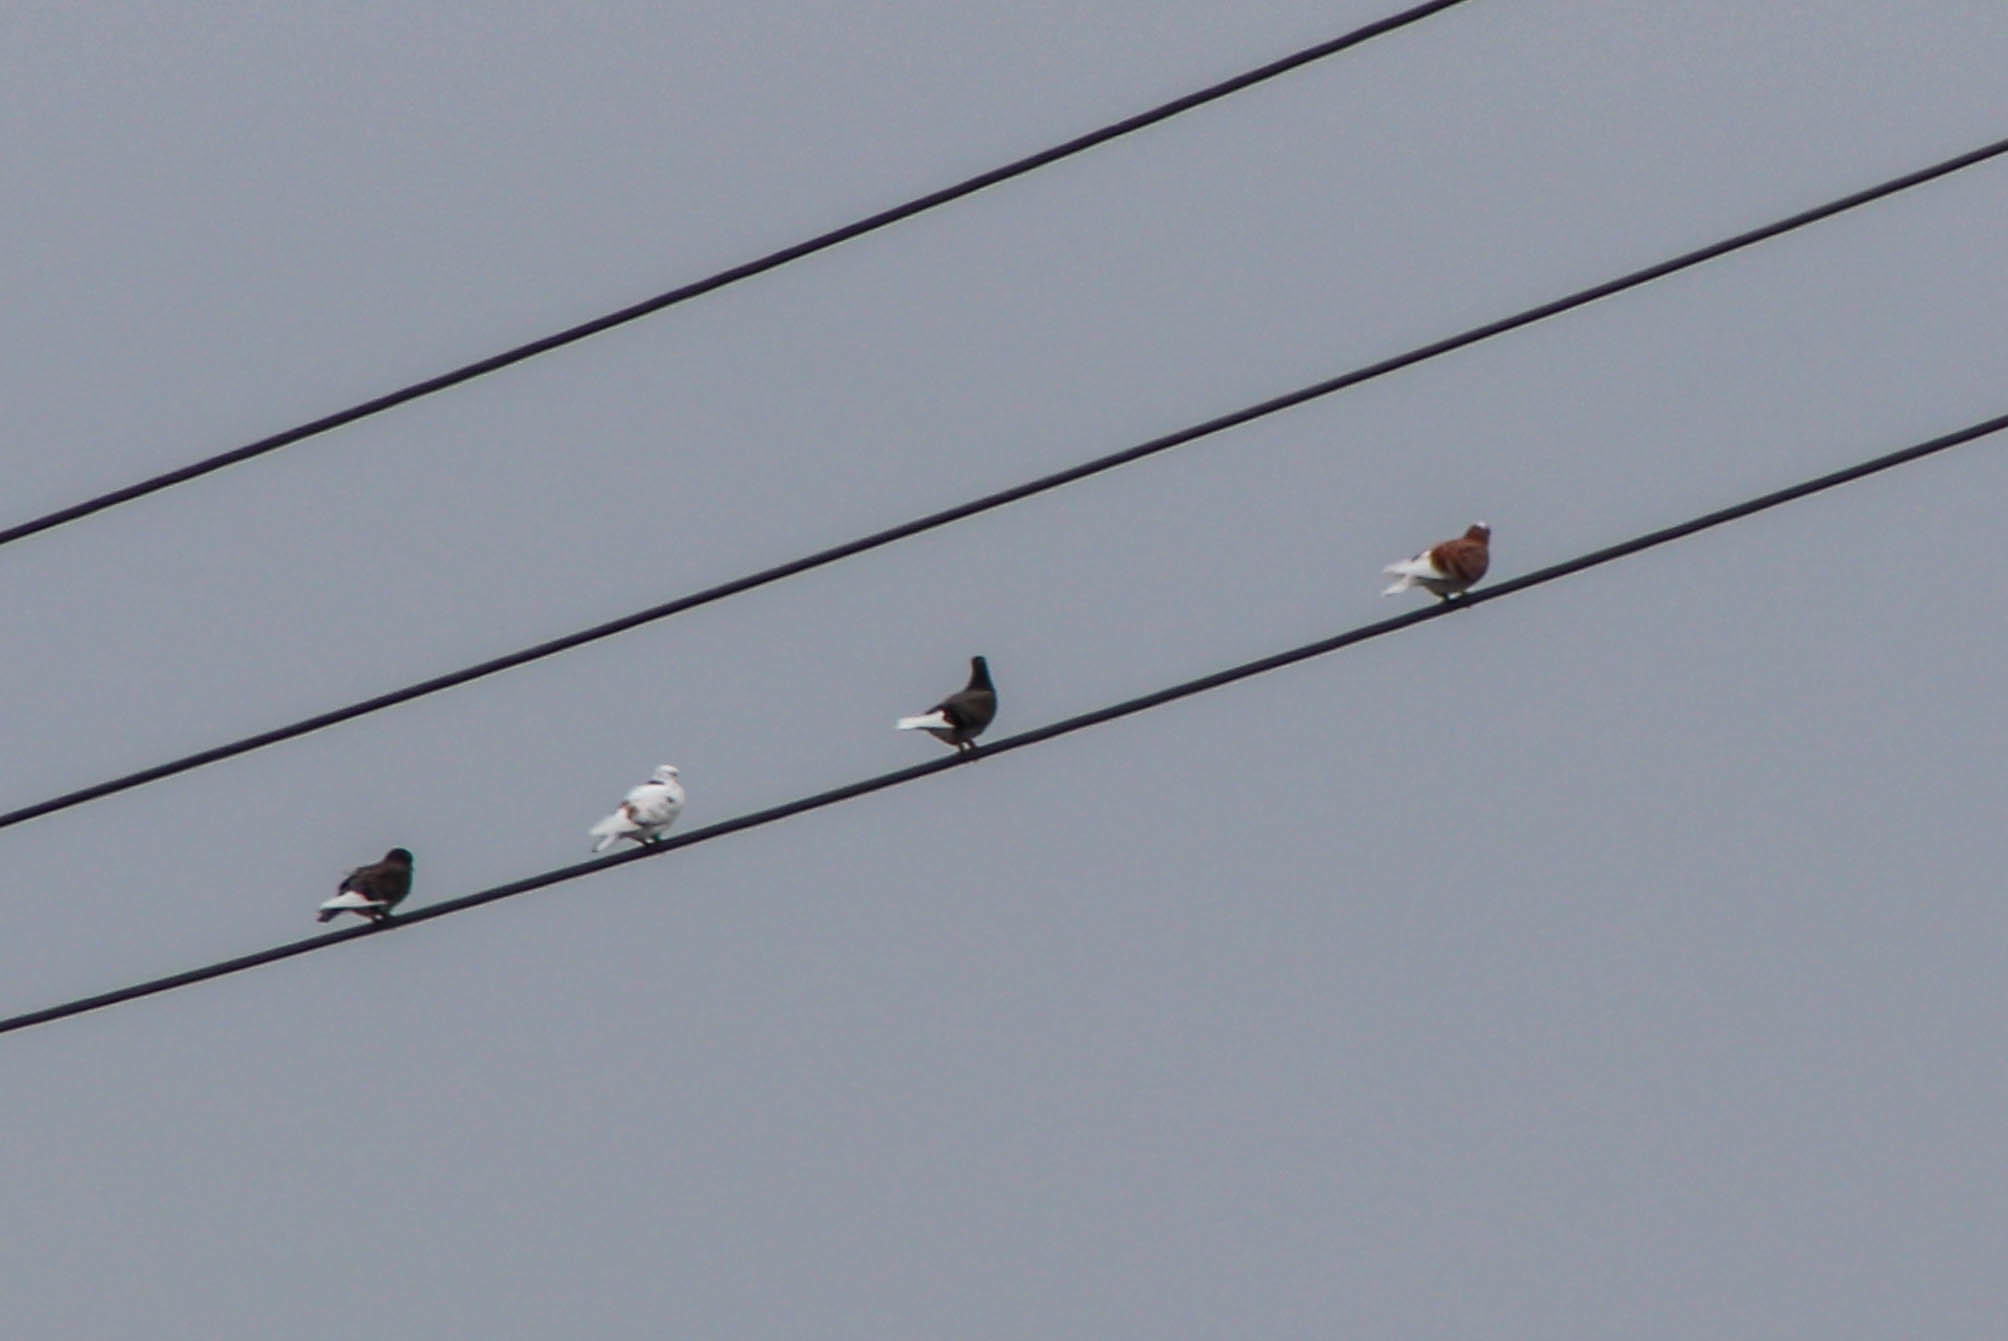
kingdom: Animalia
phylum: Chordata
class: Aves
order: Columbiformes
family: Columbidae
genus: Columba
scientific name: Columba livia
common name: Rock pigeon
